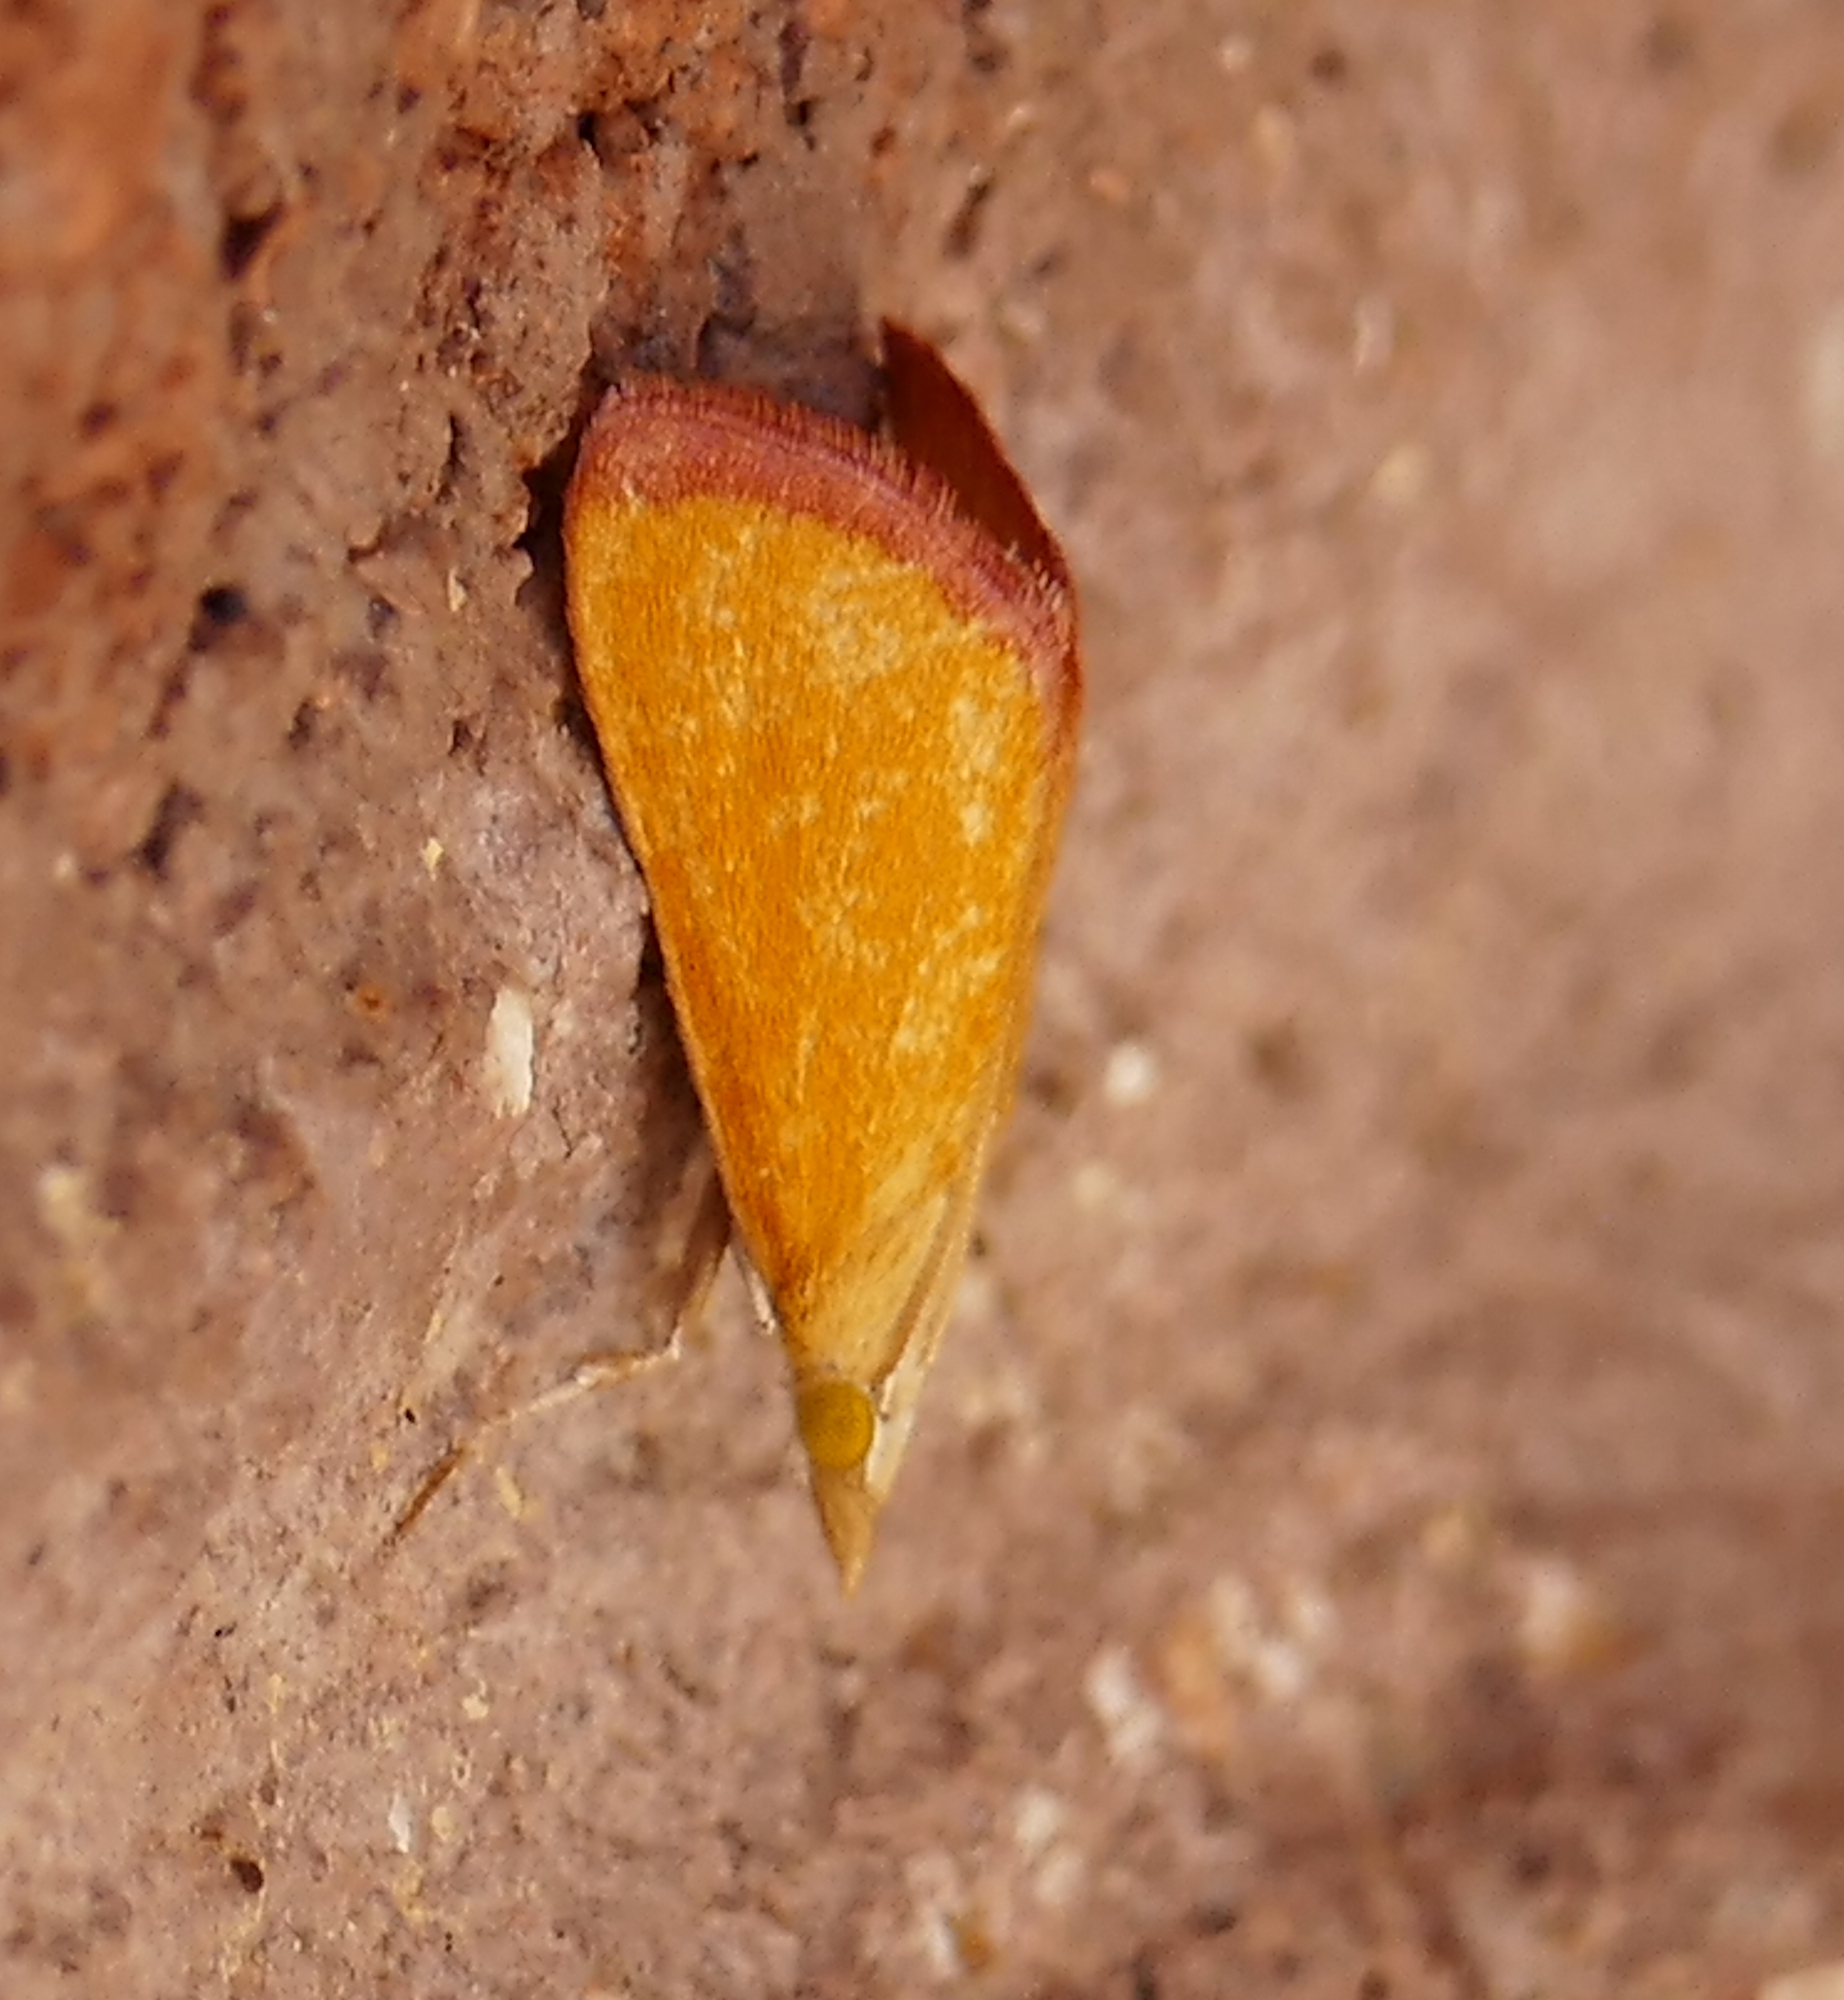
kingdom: Animalia
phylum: Arthropoda
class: Insecta
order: Lepidoptera
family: Crambidae
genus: Xanthostege
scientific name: Xanthostege plana
